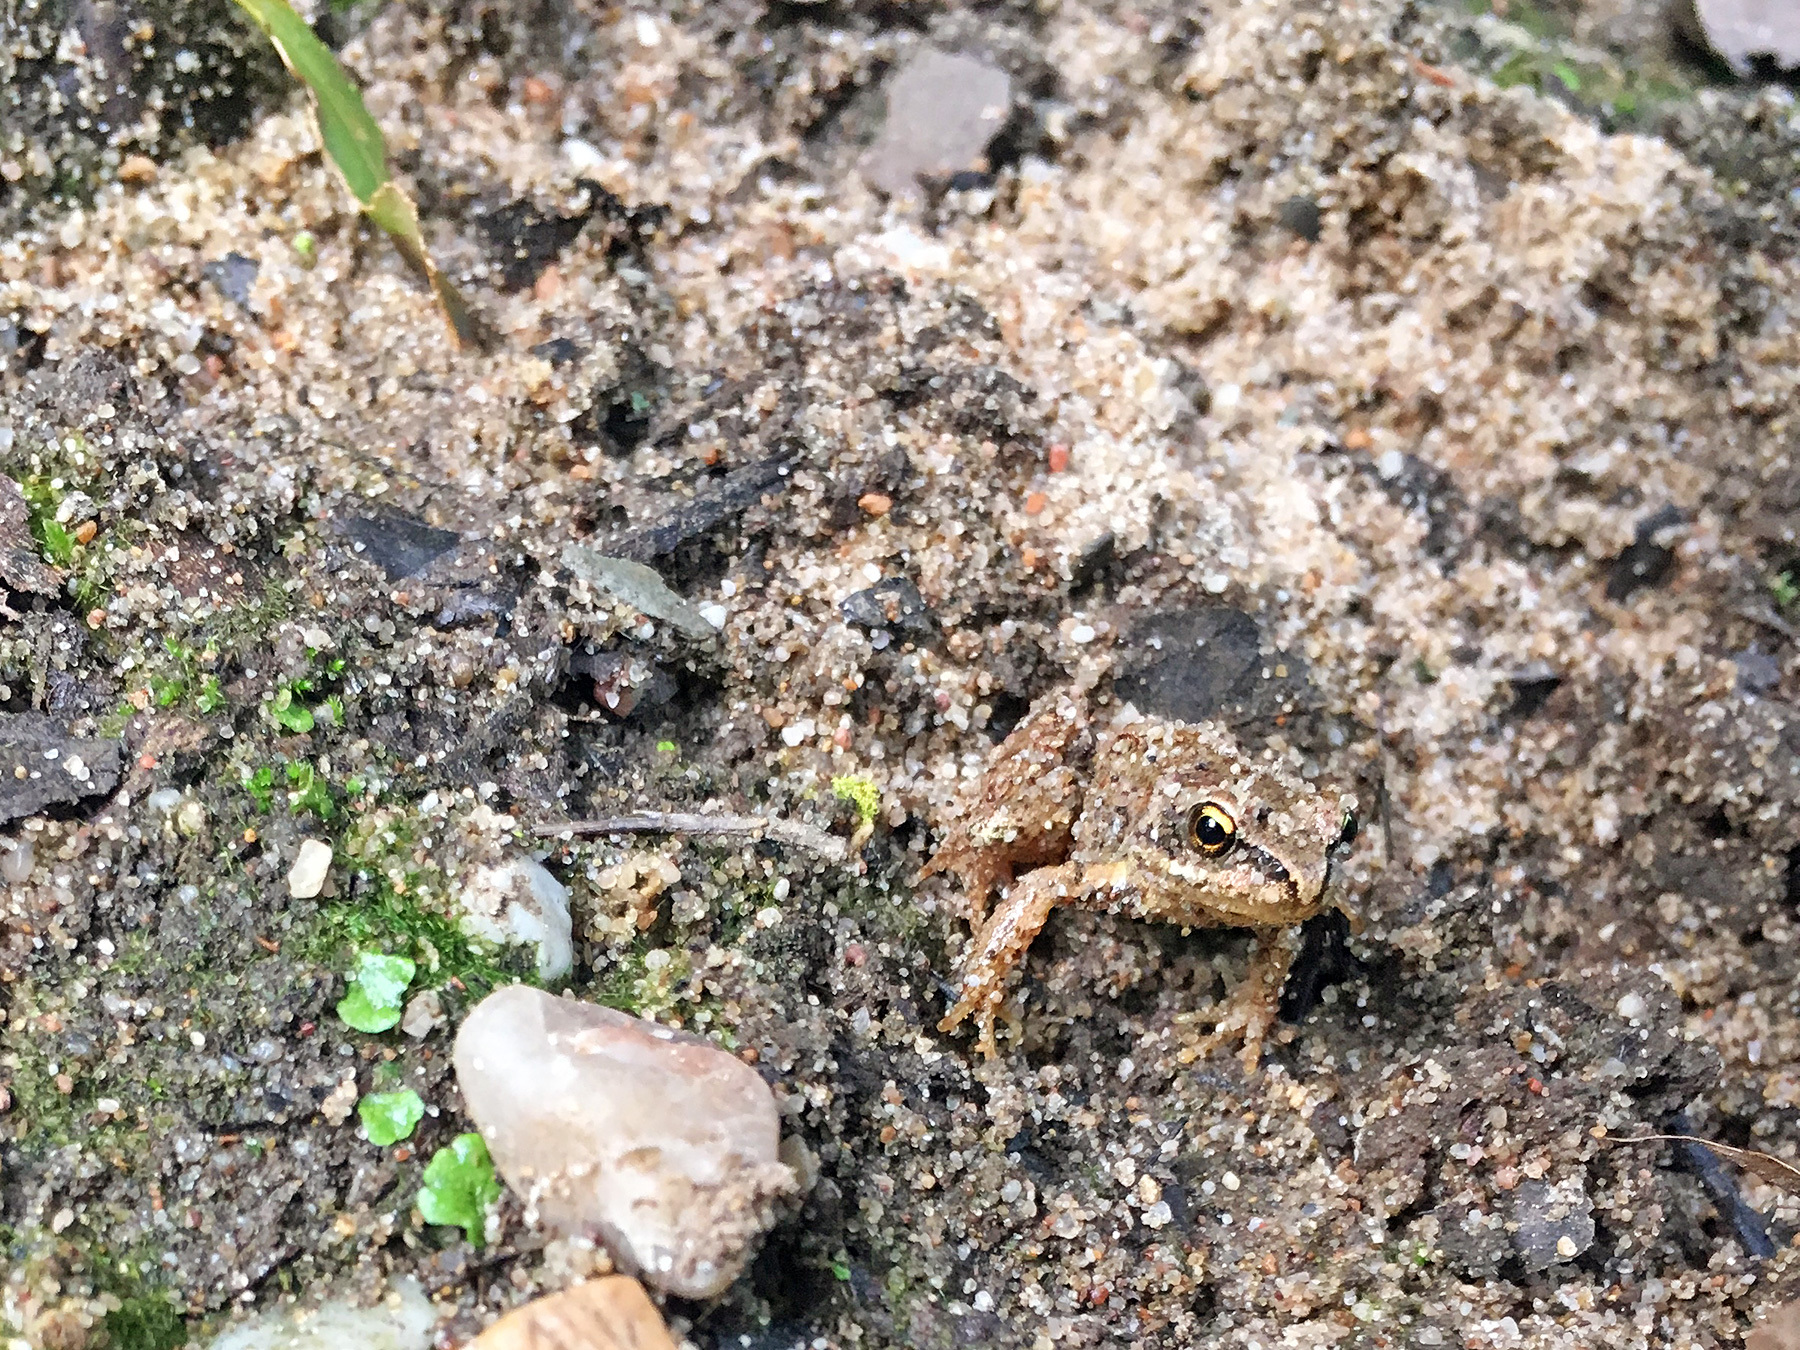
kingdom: Animalia
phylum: Chordata
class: Amphibia
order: Anura
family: Ranidae
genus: Rana
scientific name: Rana temporaria
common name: Common frog
